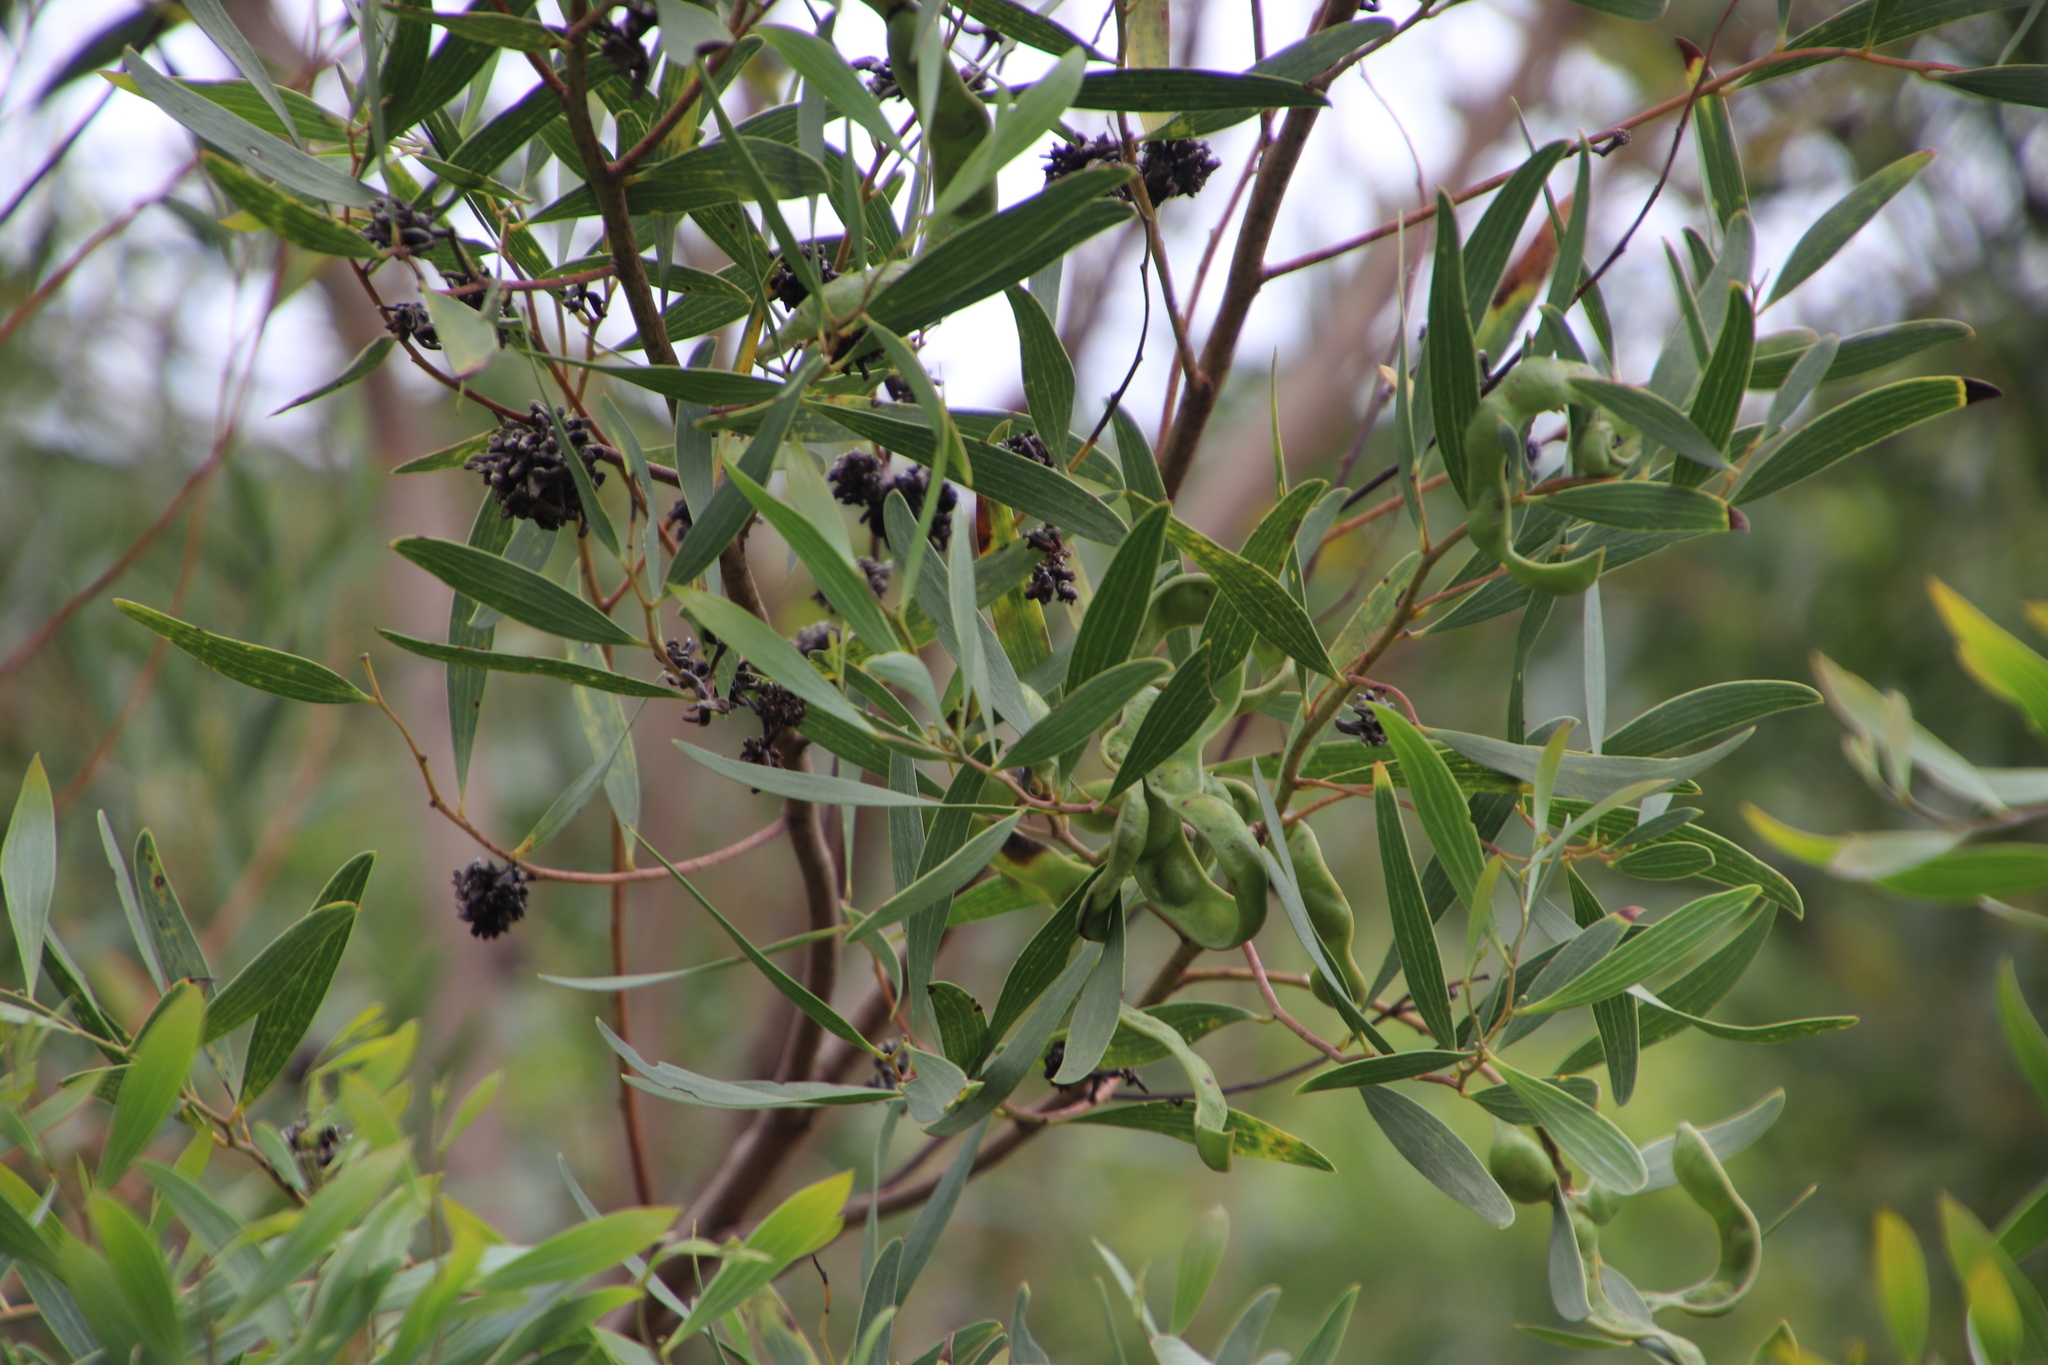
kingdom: Animalia
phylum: Arthropoda
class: Insecta
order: Diptera
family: Cecidomyiidae
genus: Dasineura
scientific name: Dasineura dielsi
